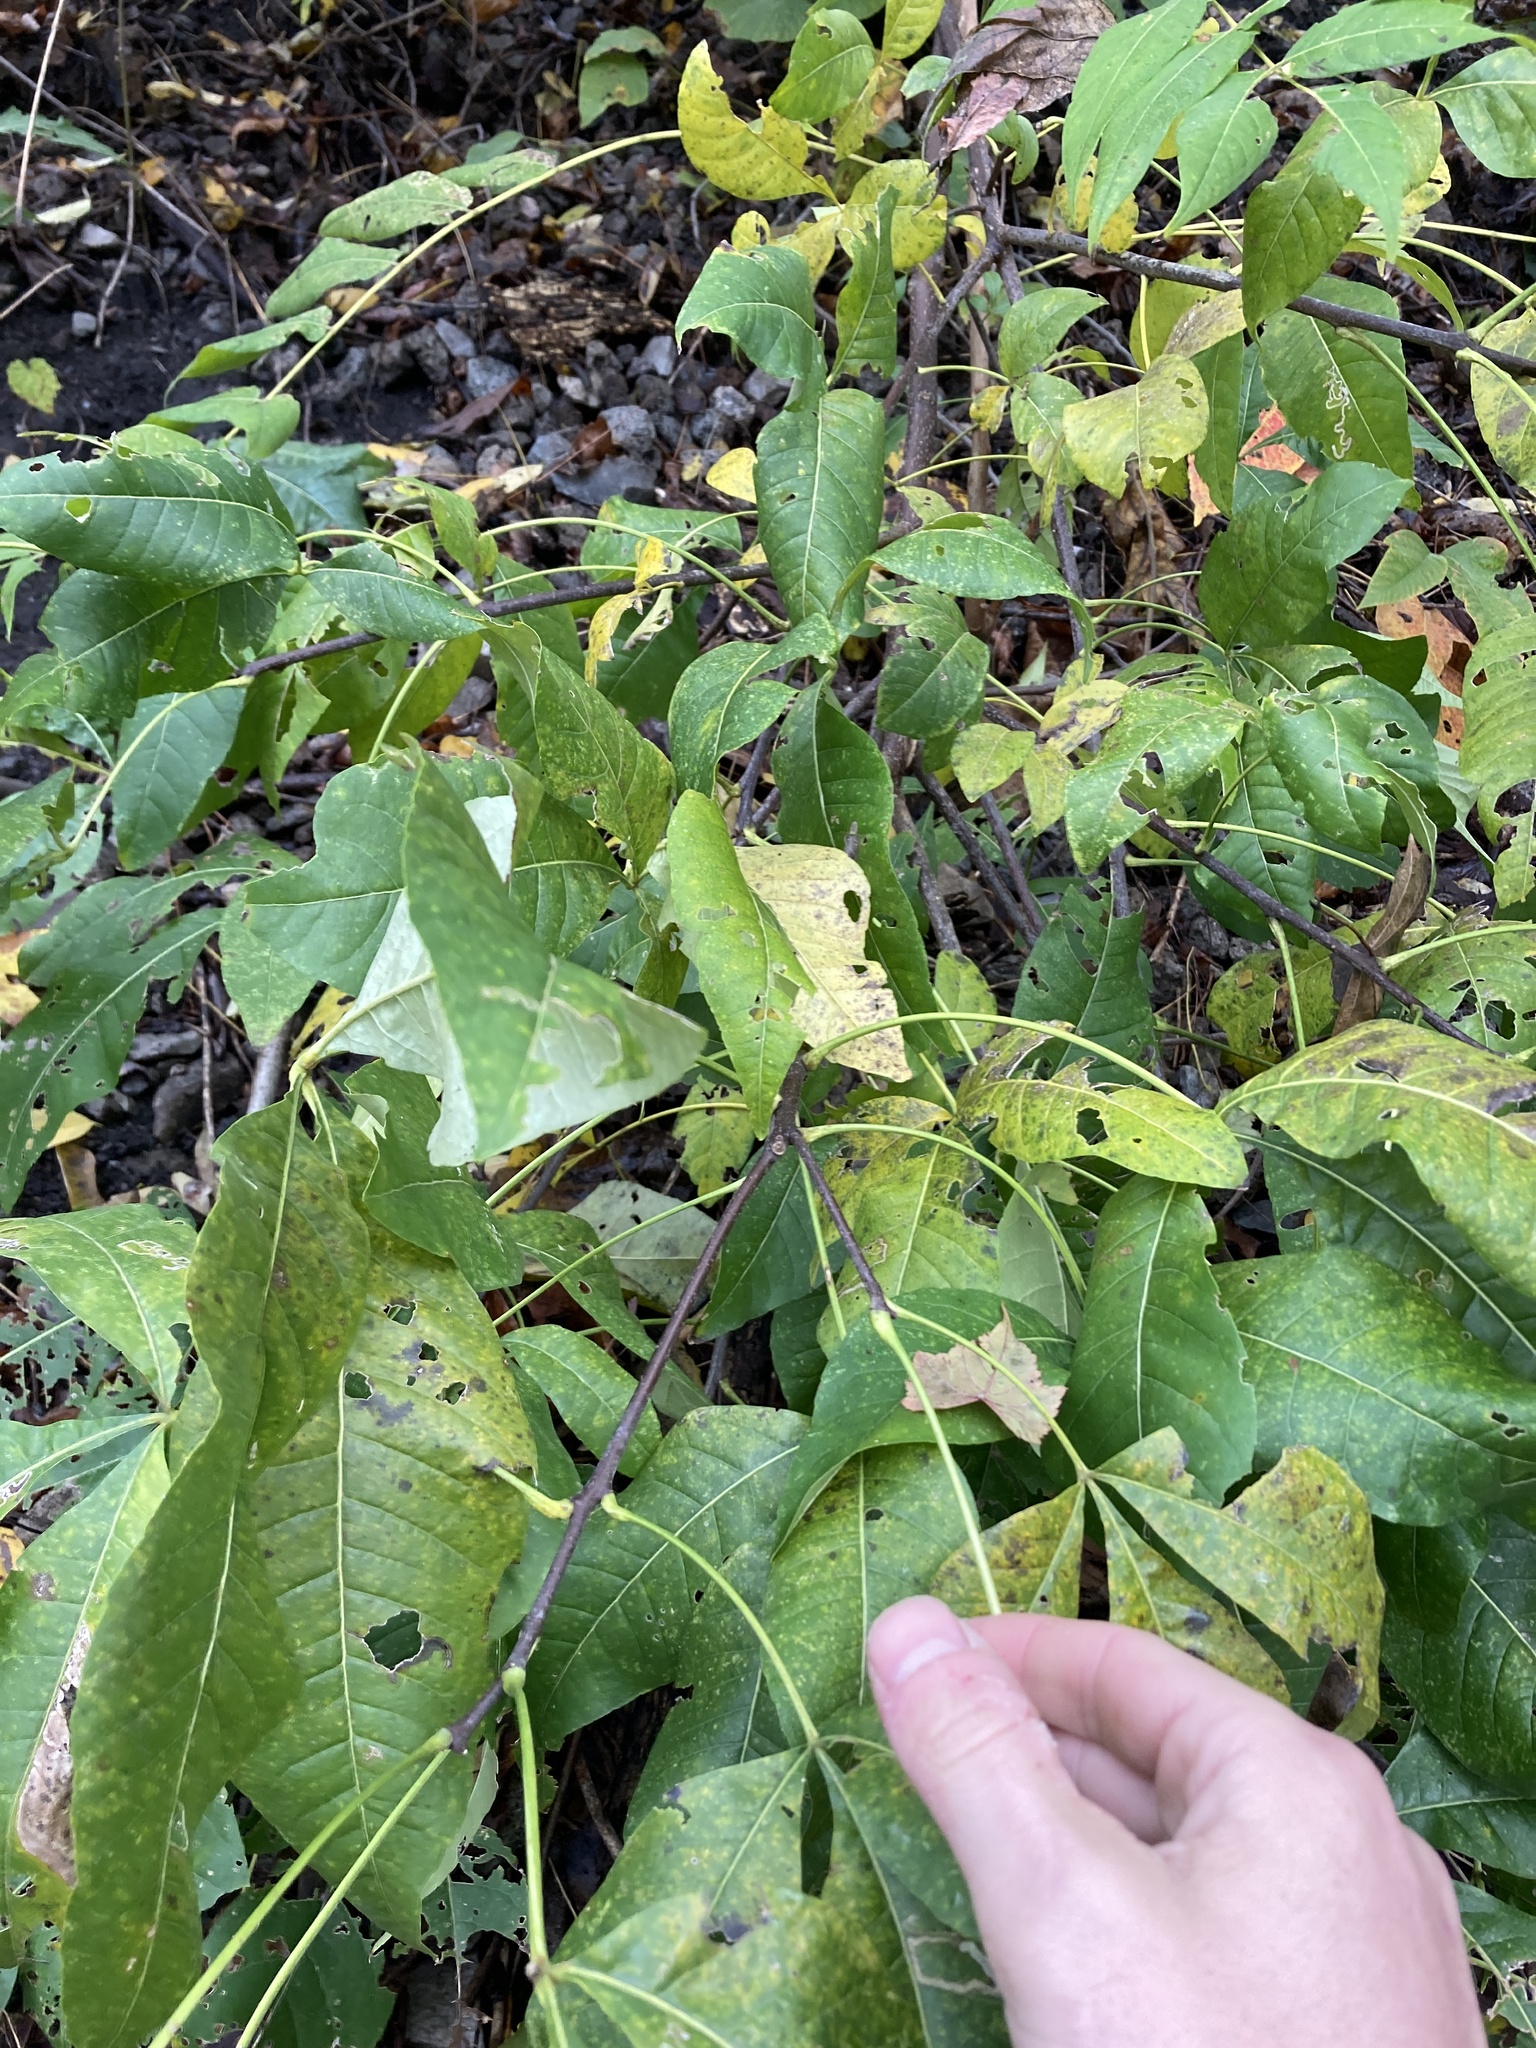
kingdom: Plantae
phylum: Tracheophyta
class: Magnoliopsida
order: Sapindales
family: Rutaceae
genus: Ptelea
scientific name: Ptelea trifoliata
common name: Common hop-tree
